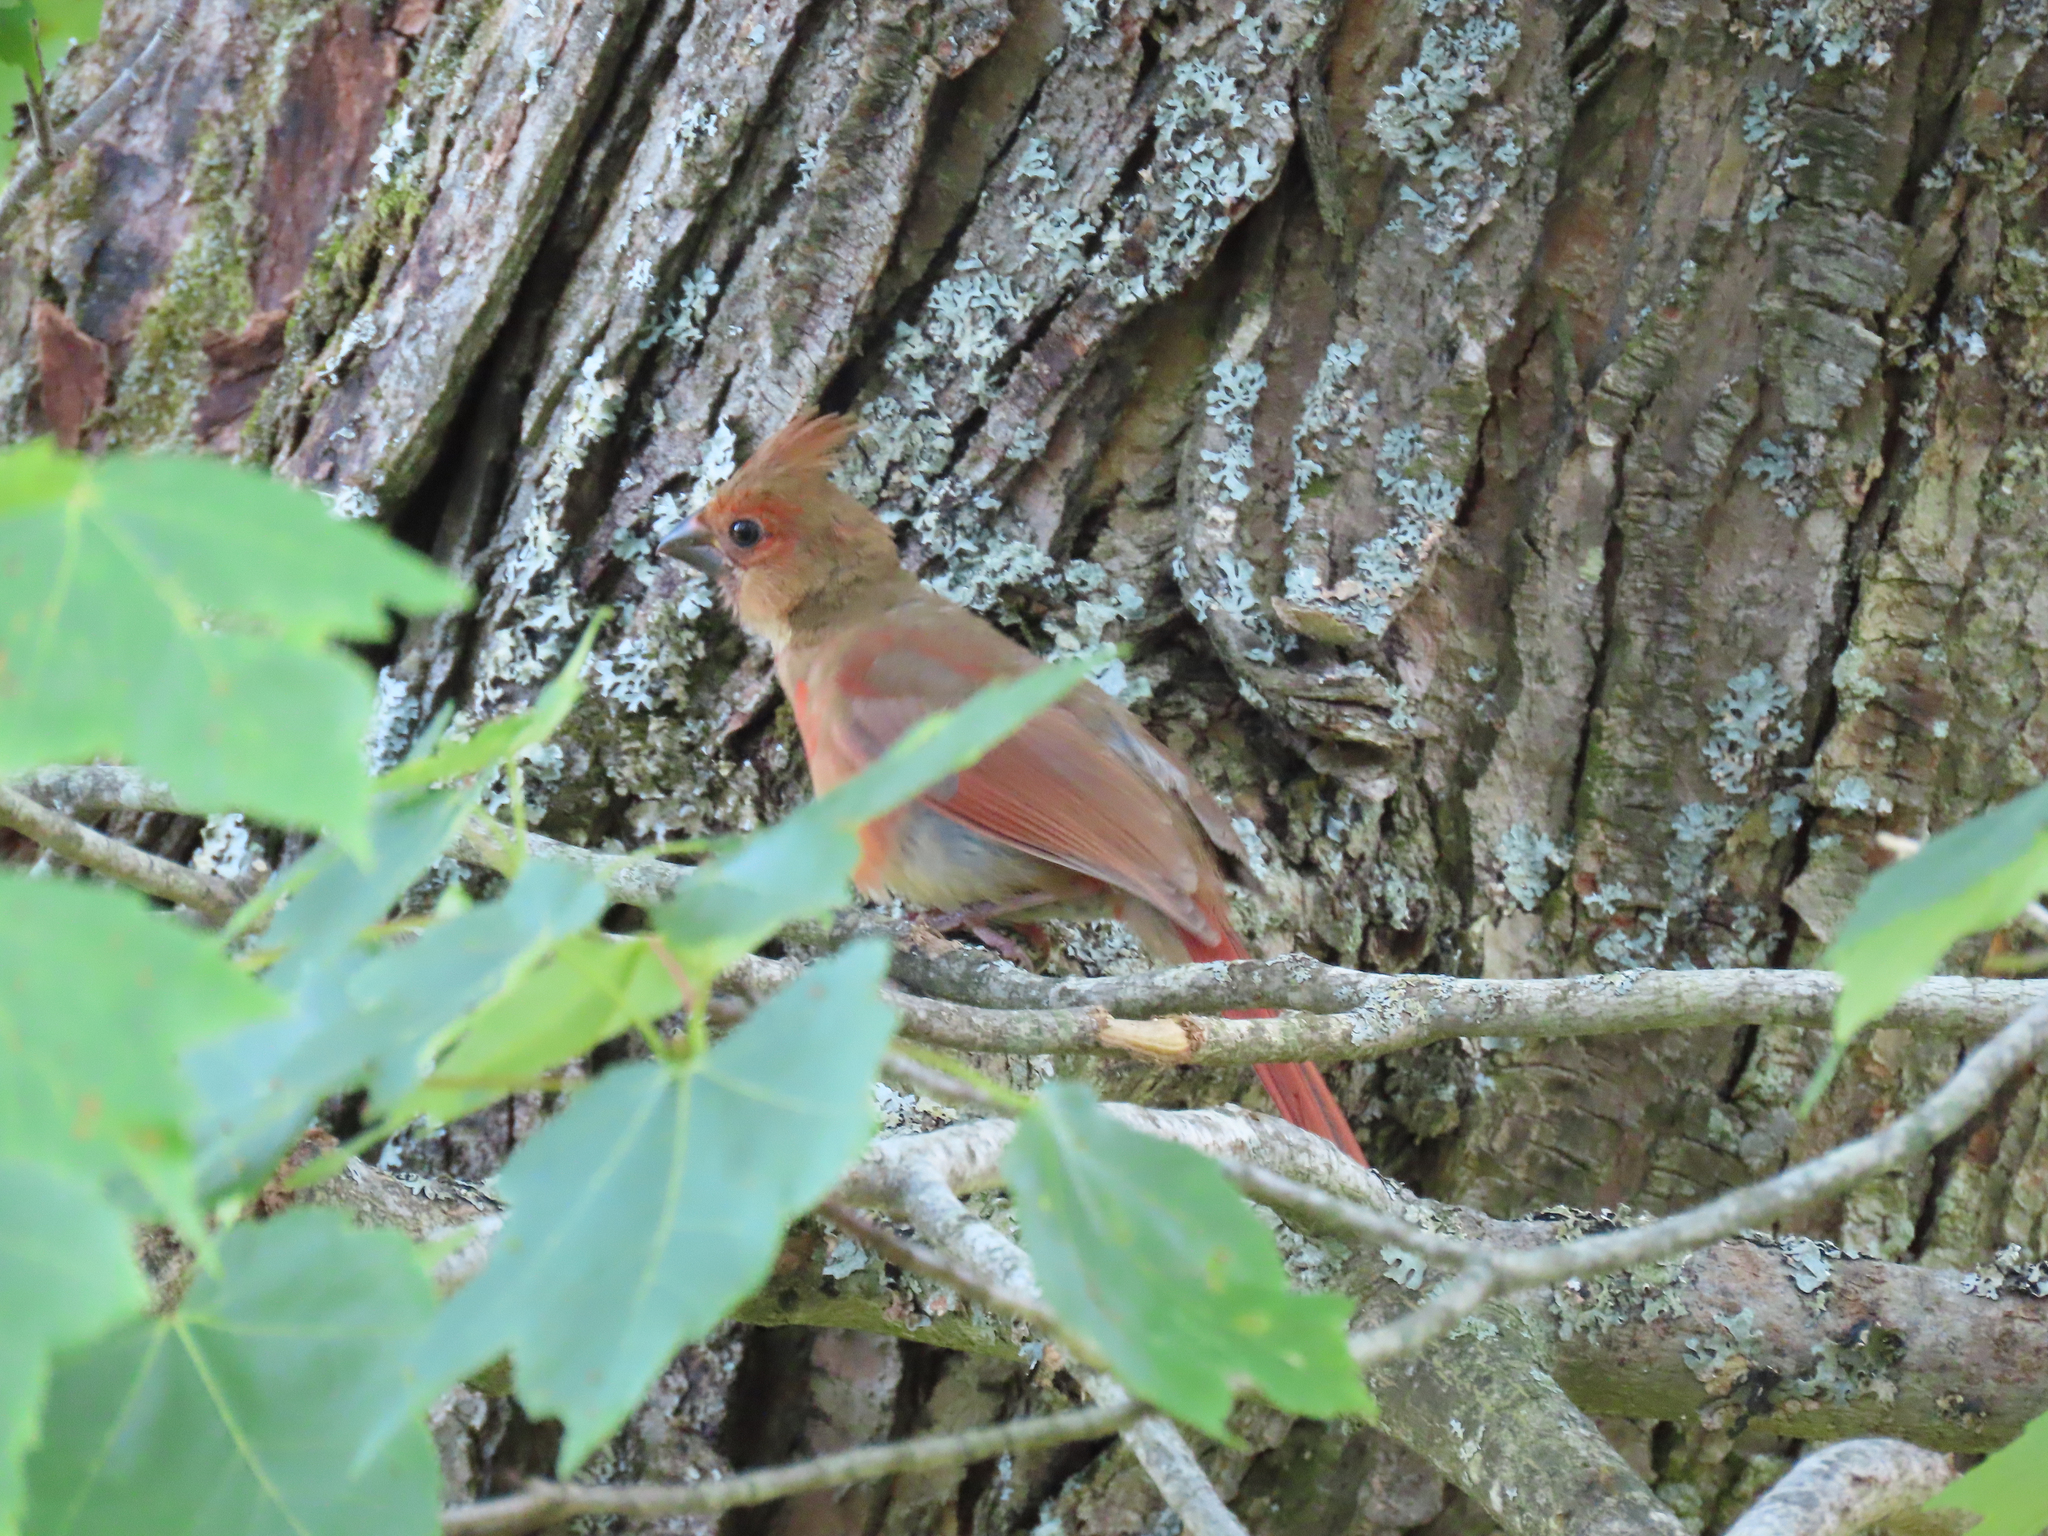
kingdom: Animalia
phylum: Chordata
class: Aves
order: Passeriformes
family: Cardinalidae
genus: Cardinalis
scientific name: Cardinalis cardinalis
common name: Northern cardinal
